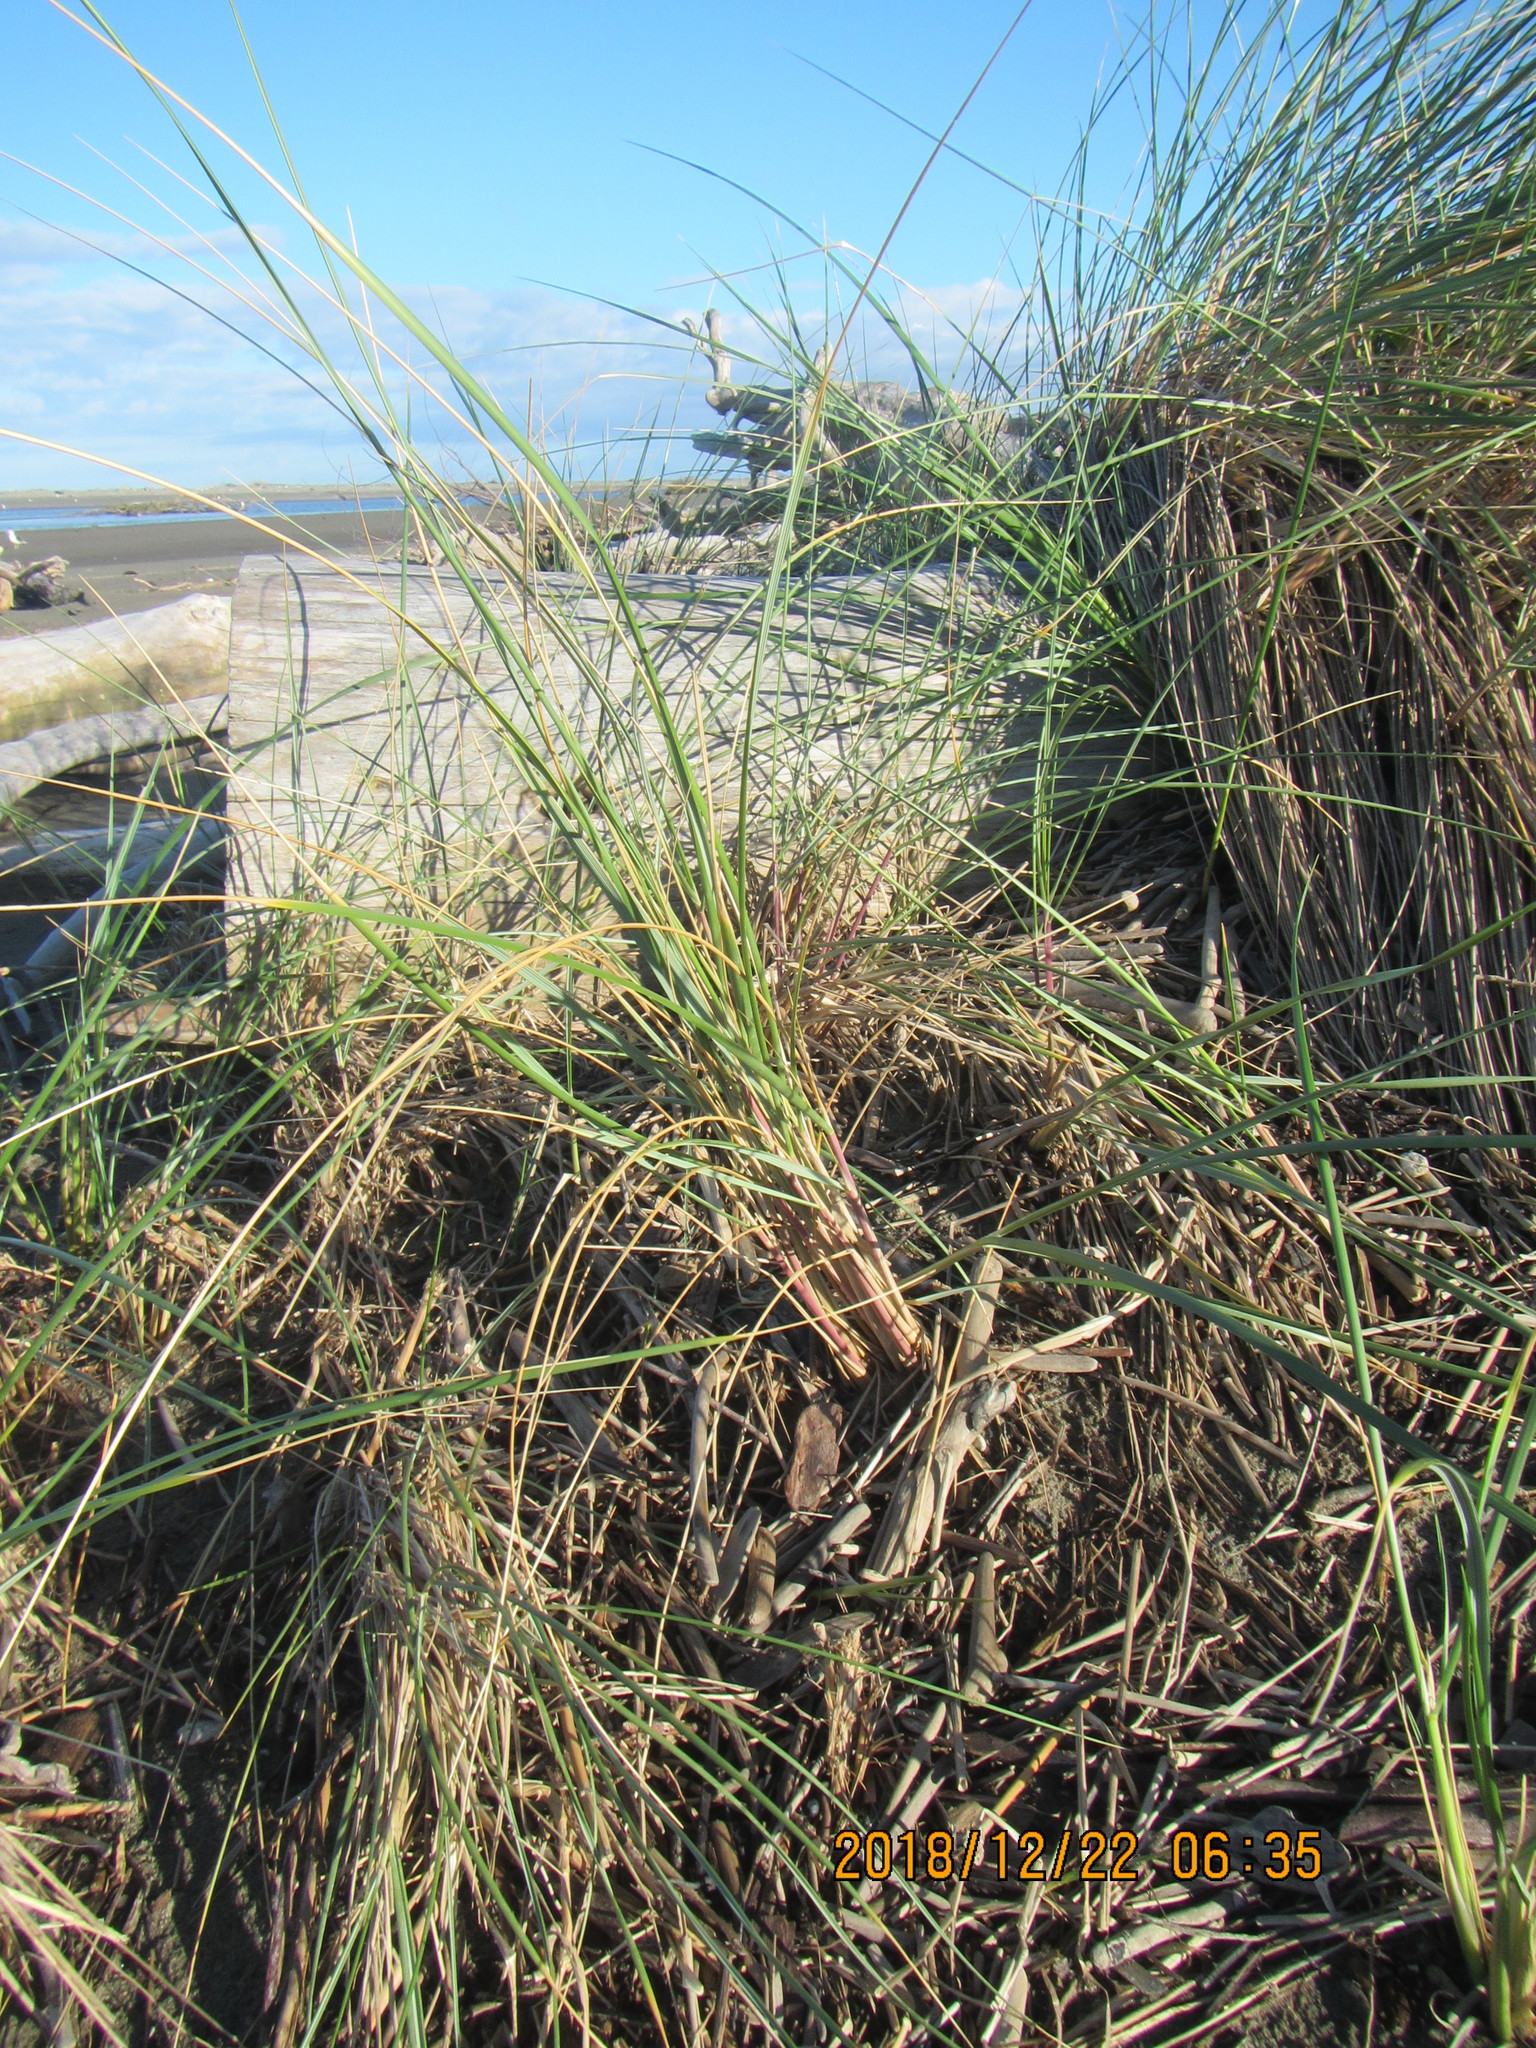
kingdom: Plantae
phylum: Tracheophyta
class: Liliopsida
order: Poales
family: Poaceae
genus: Calamagrostis
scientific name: Calamagrostis arenaria
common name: European beachgrass
